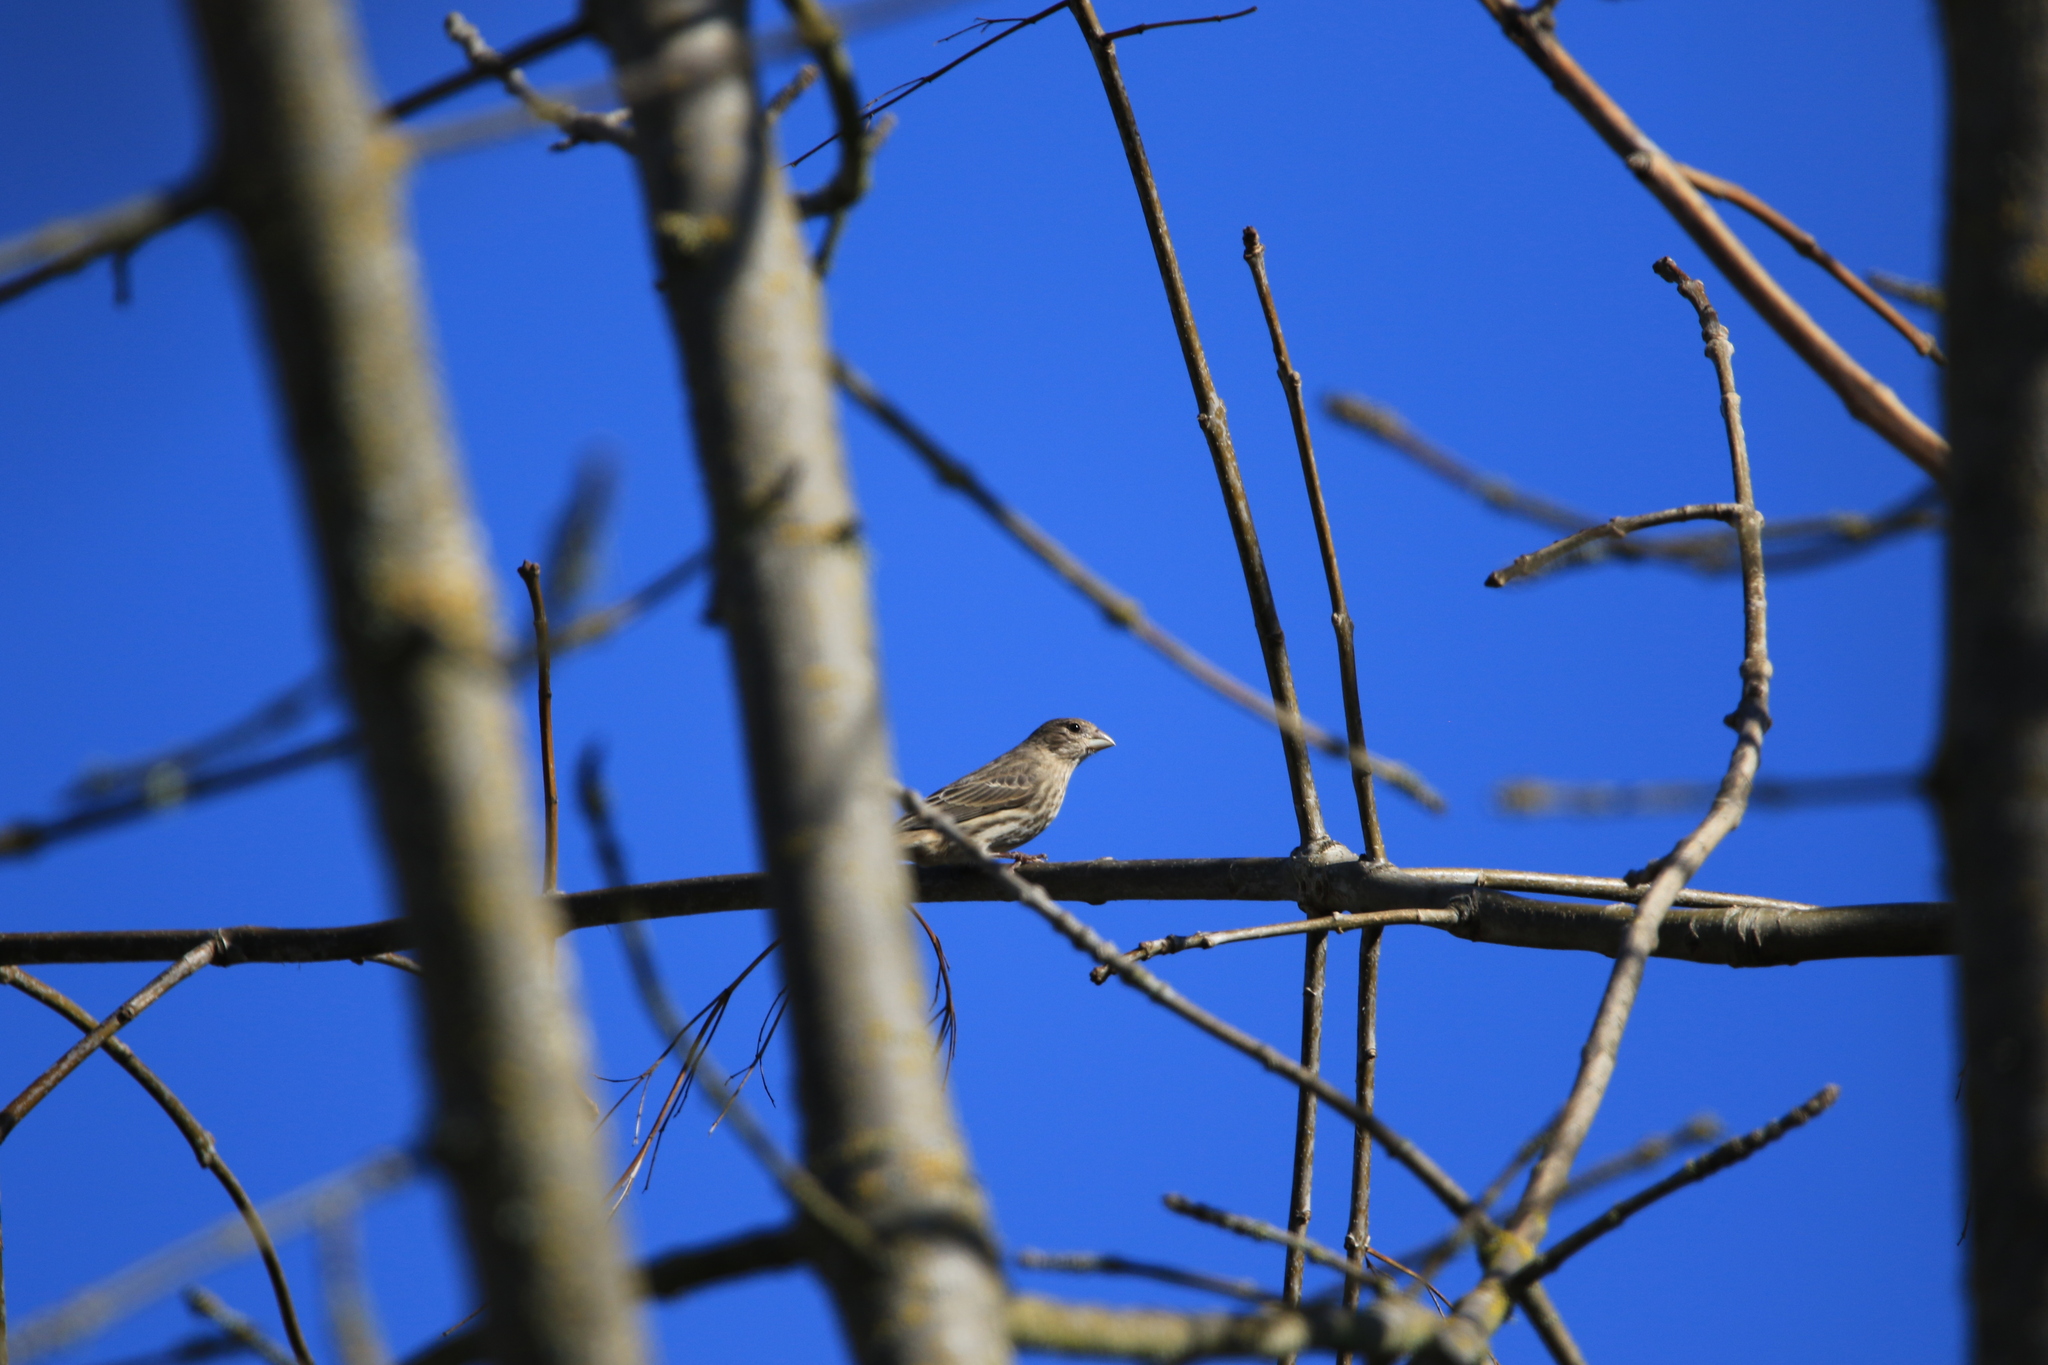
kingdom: Animalia
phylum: Chordata
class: Aves
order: Passeriformes
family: Fringillidae
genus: Haemorhous
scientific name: Haemorhous mexicanus
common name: House finch
